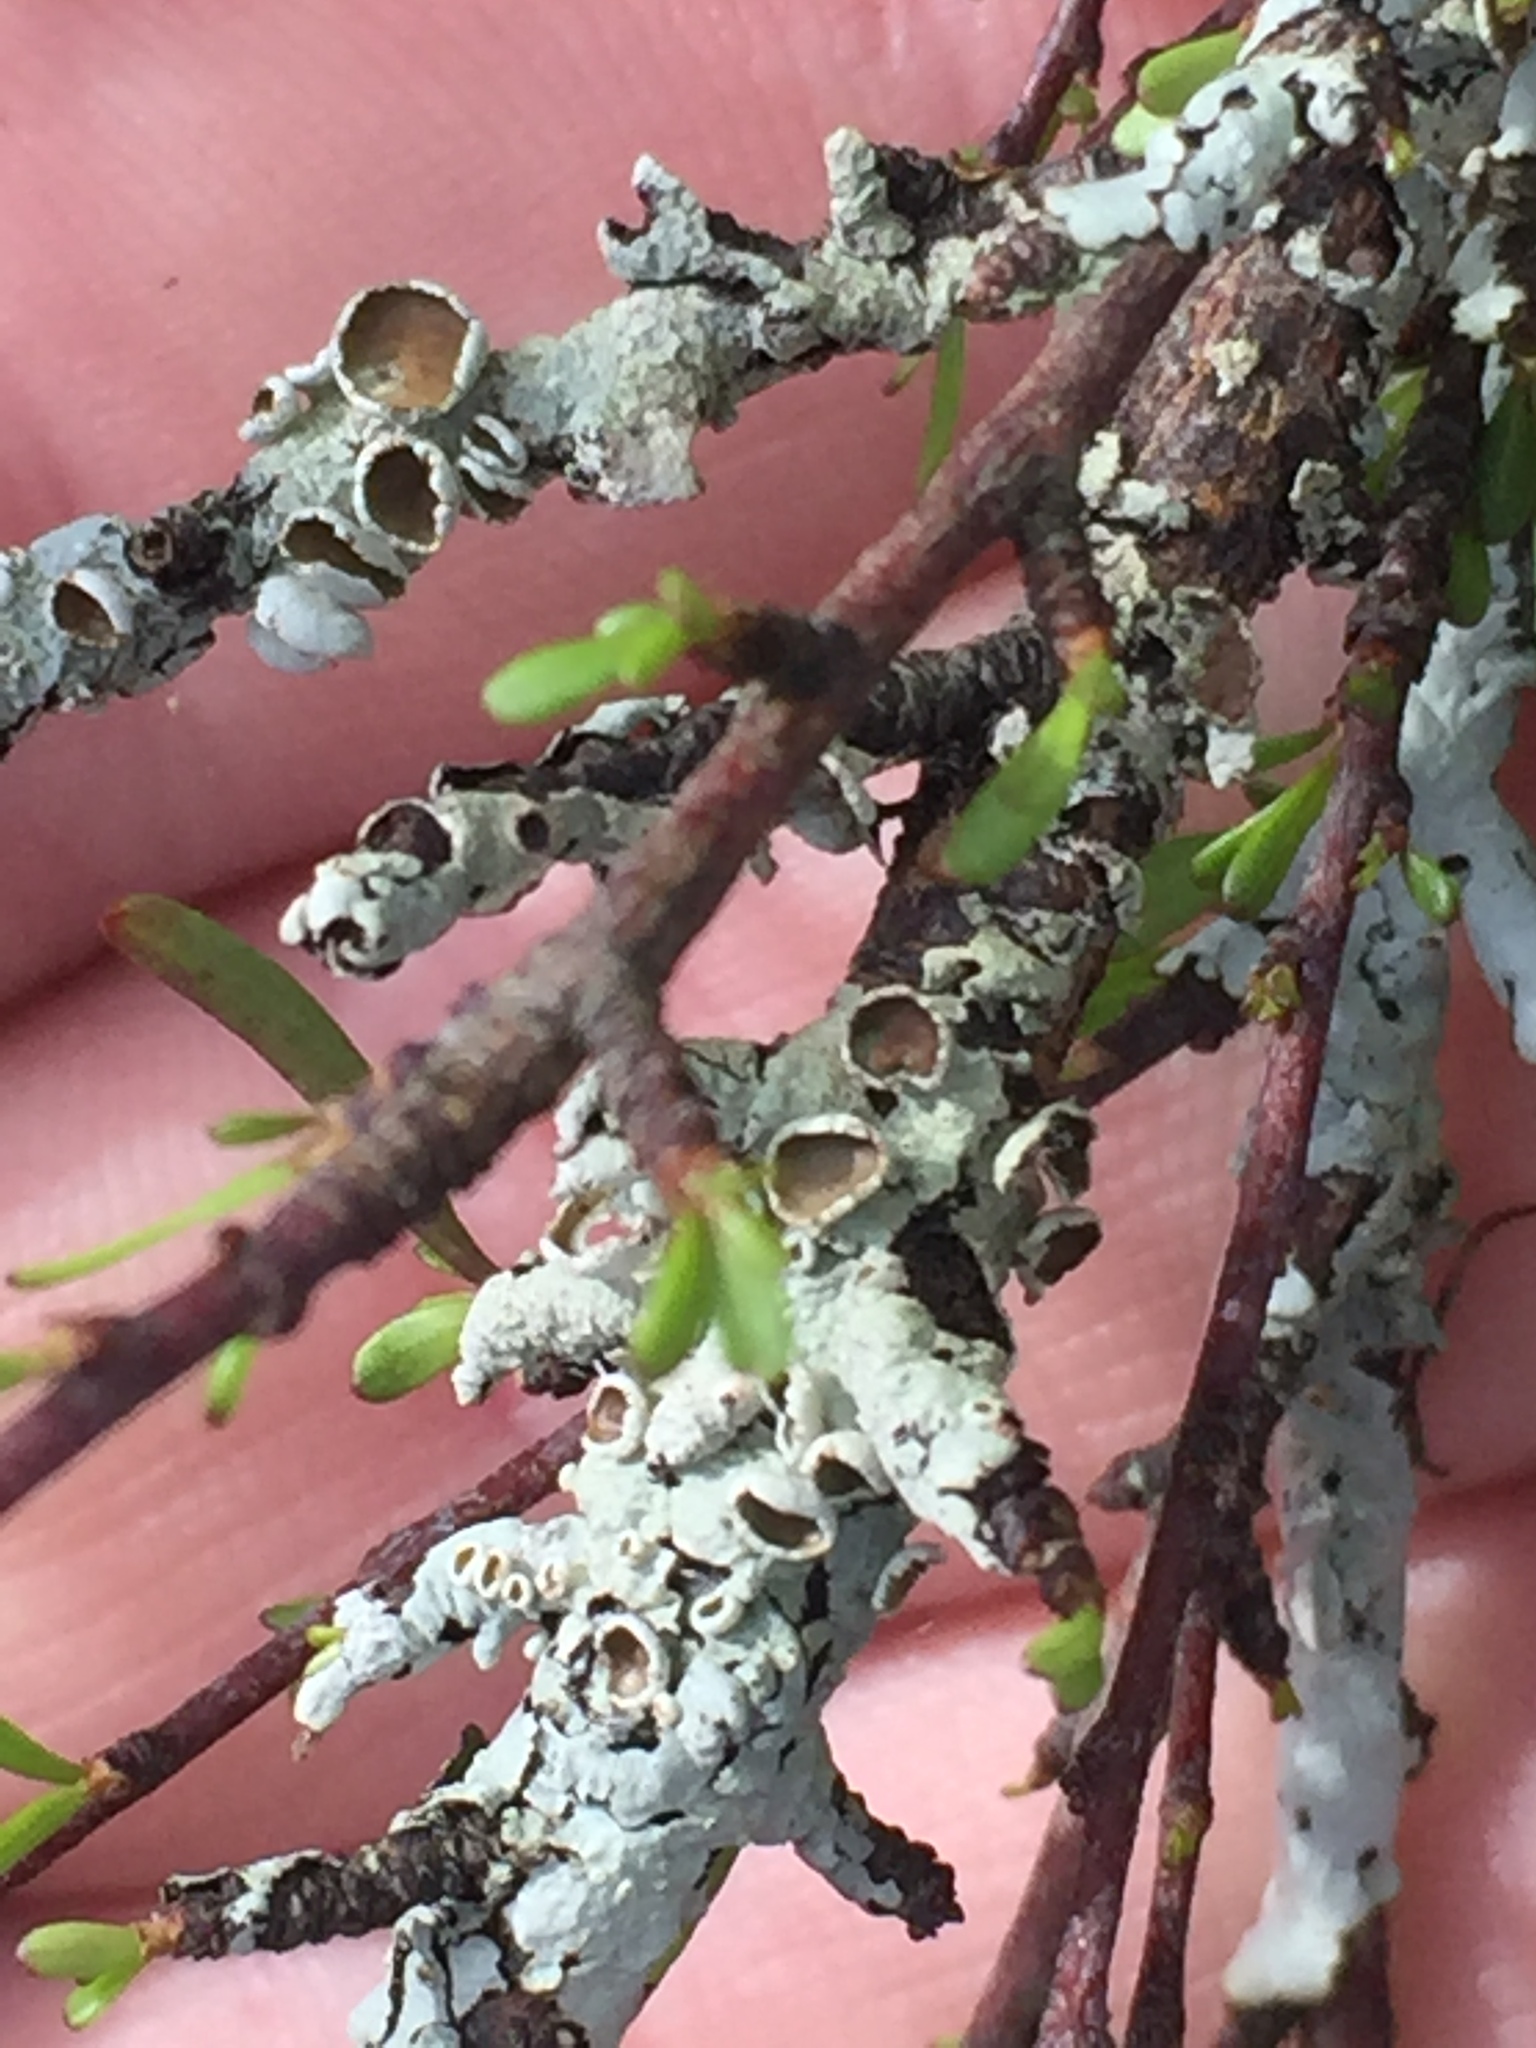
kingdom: Fungi
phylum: Ascomycota
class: Lecanoromycetes
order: Lecanorales
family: Parmeliaceae
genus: Austroparmelina
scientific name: Austroparmelina pseudorelicina
